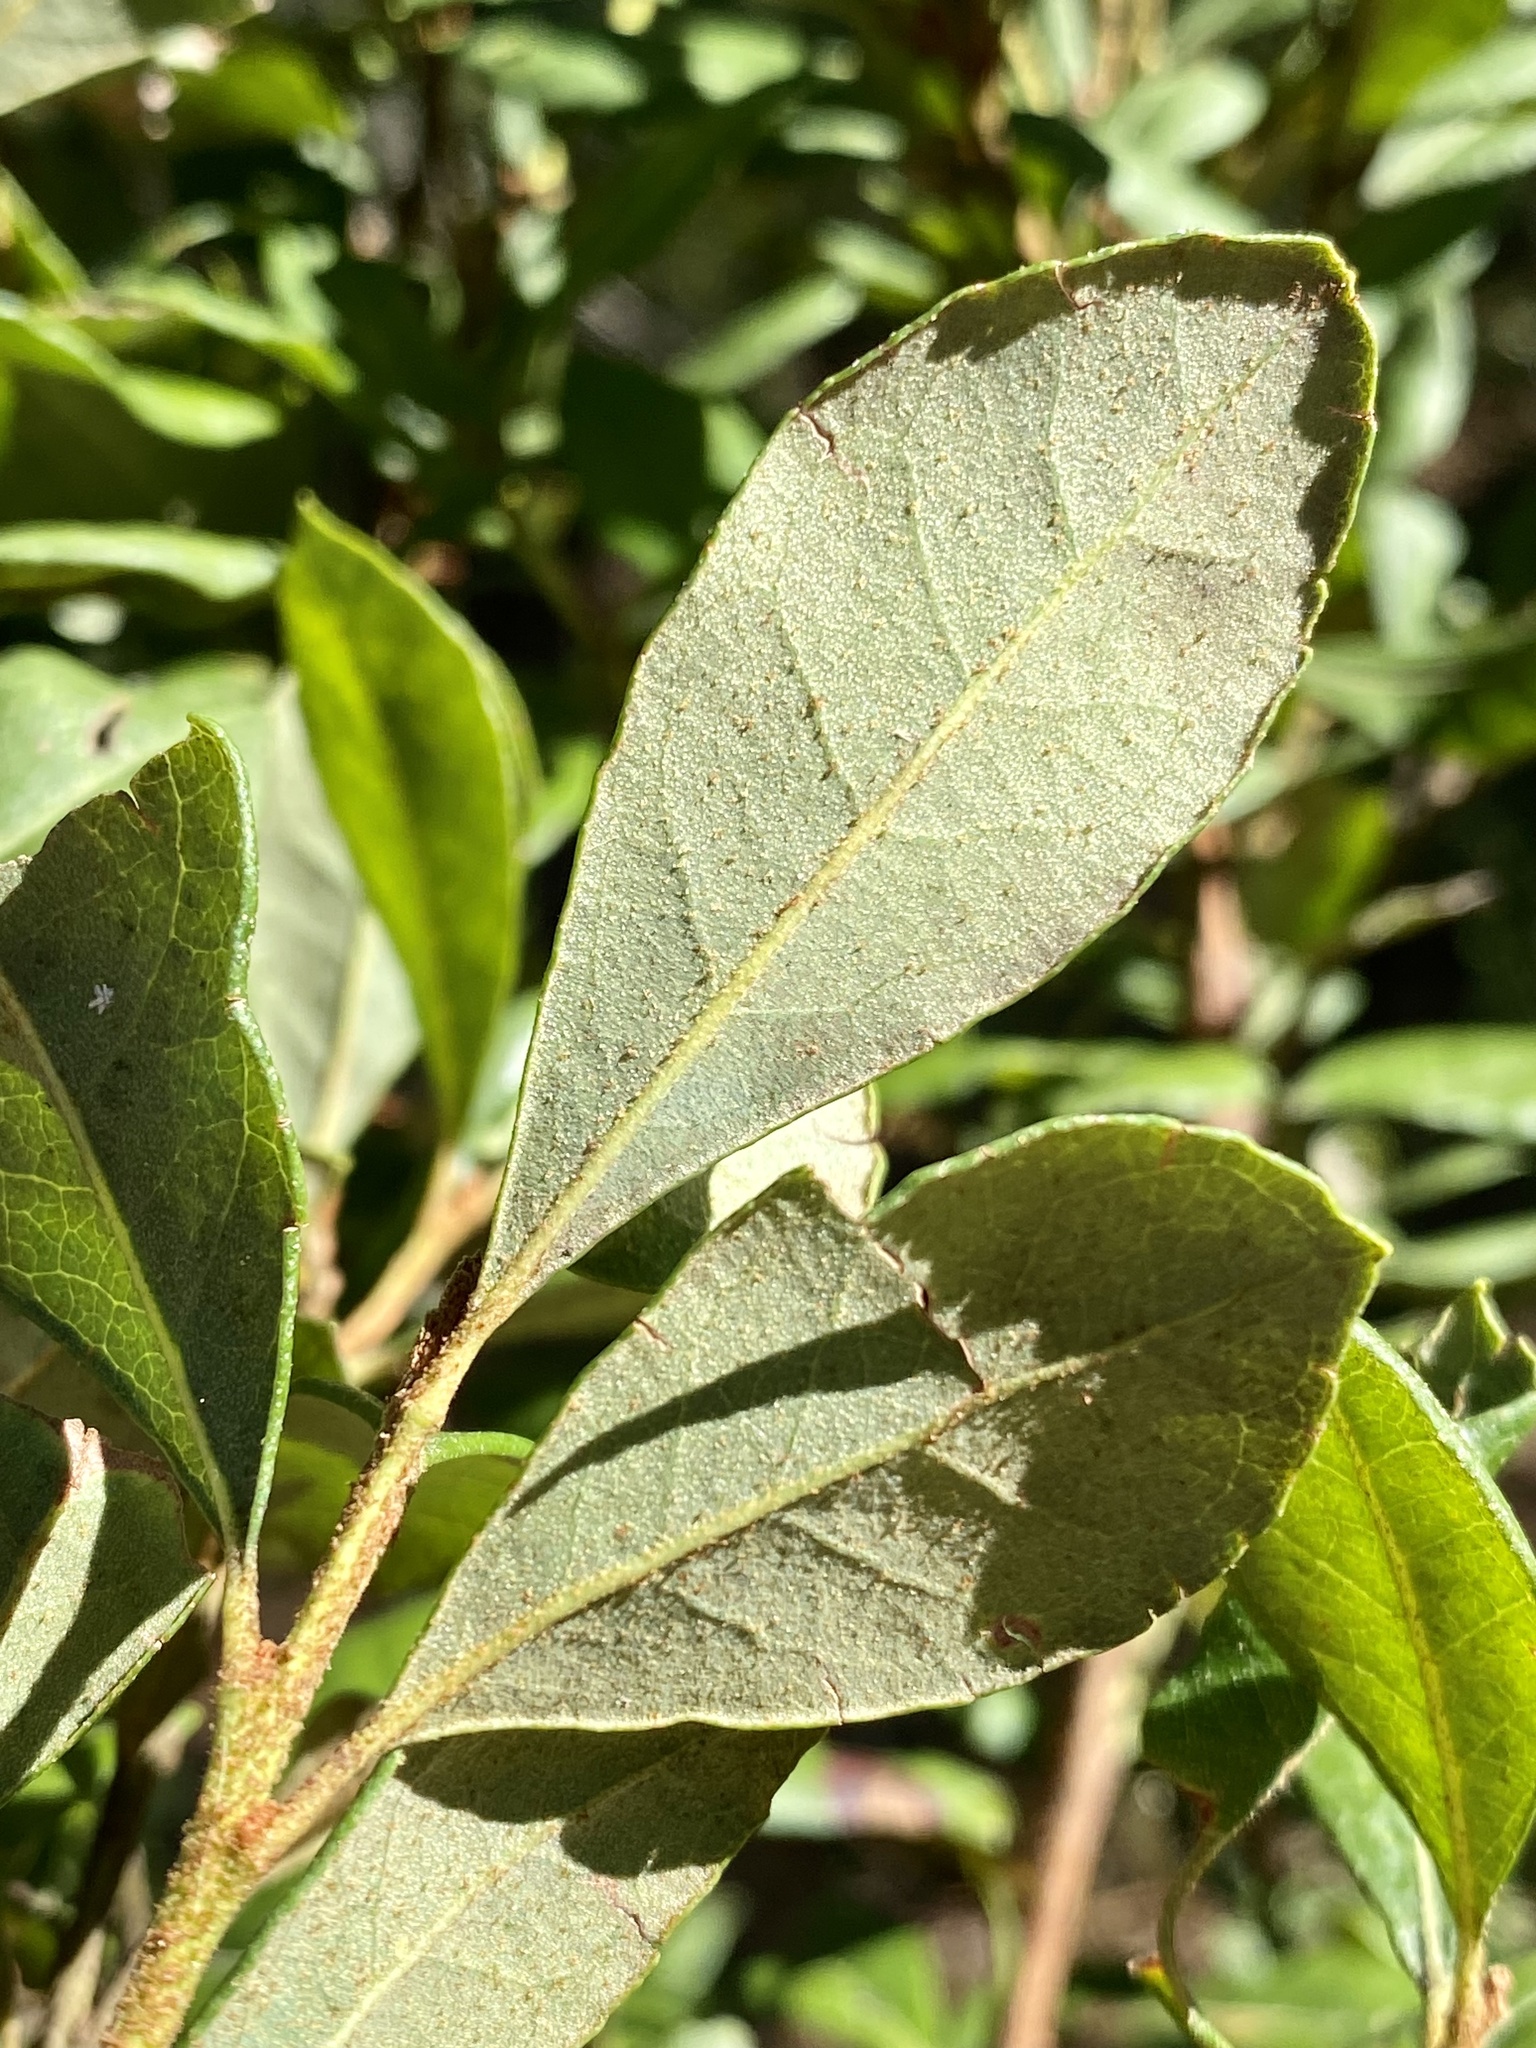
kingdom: Plantae
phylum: Tracheophyta
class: Magnoliopsida
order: Ericales
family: Ericaceae
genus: Lyonia
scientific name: Lyonia ferruginea
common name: Rusty lyonia
